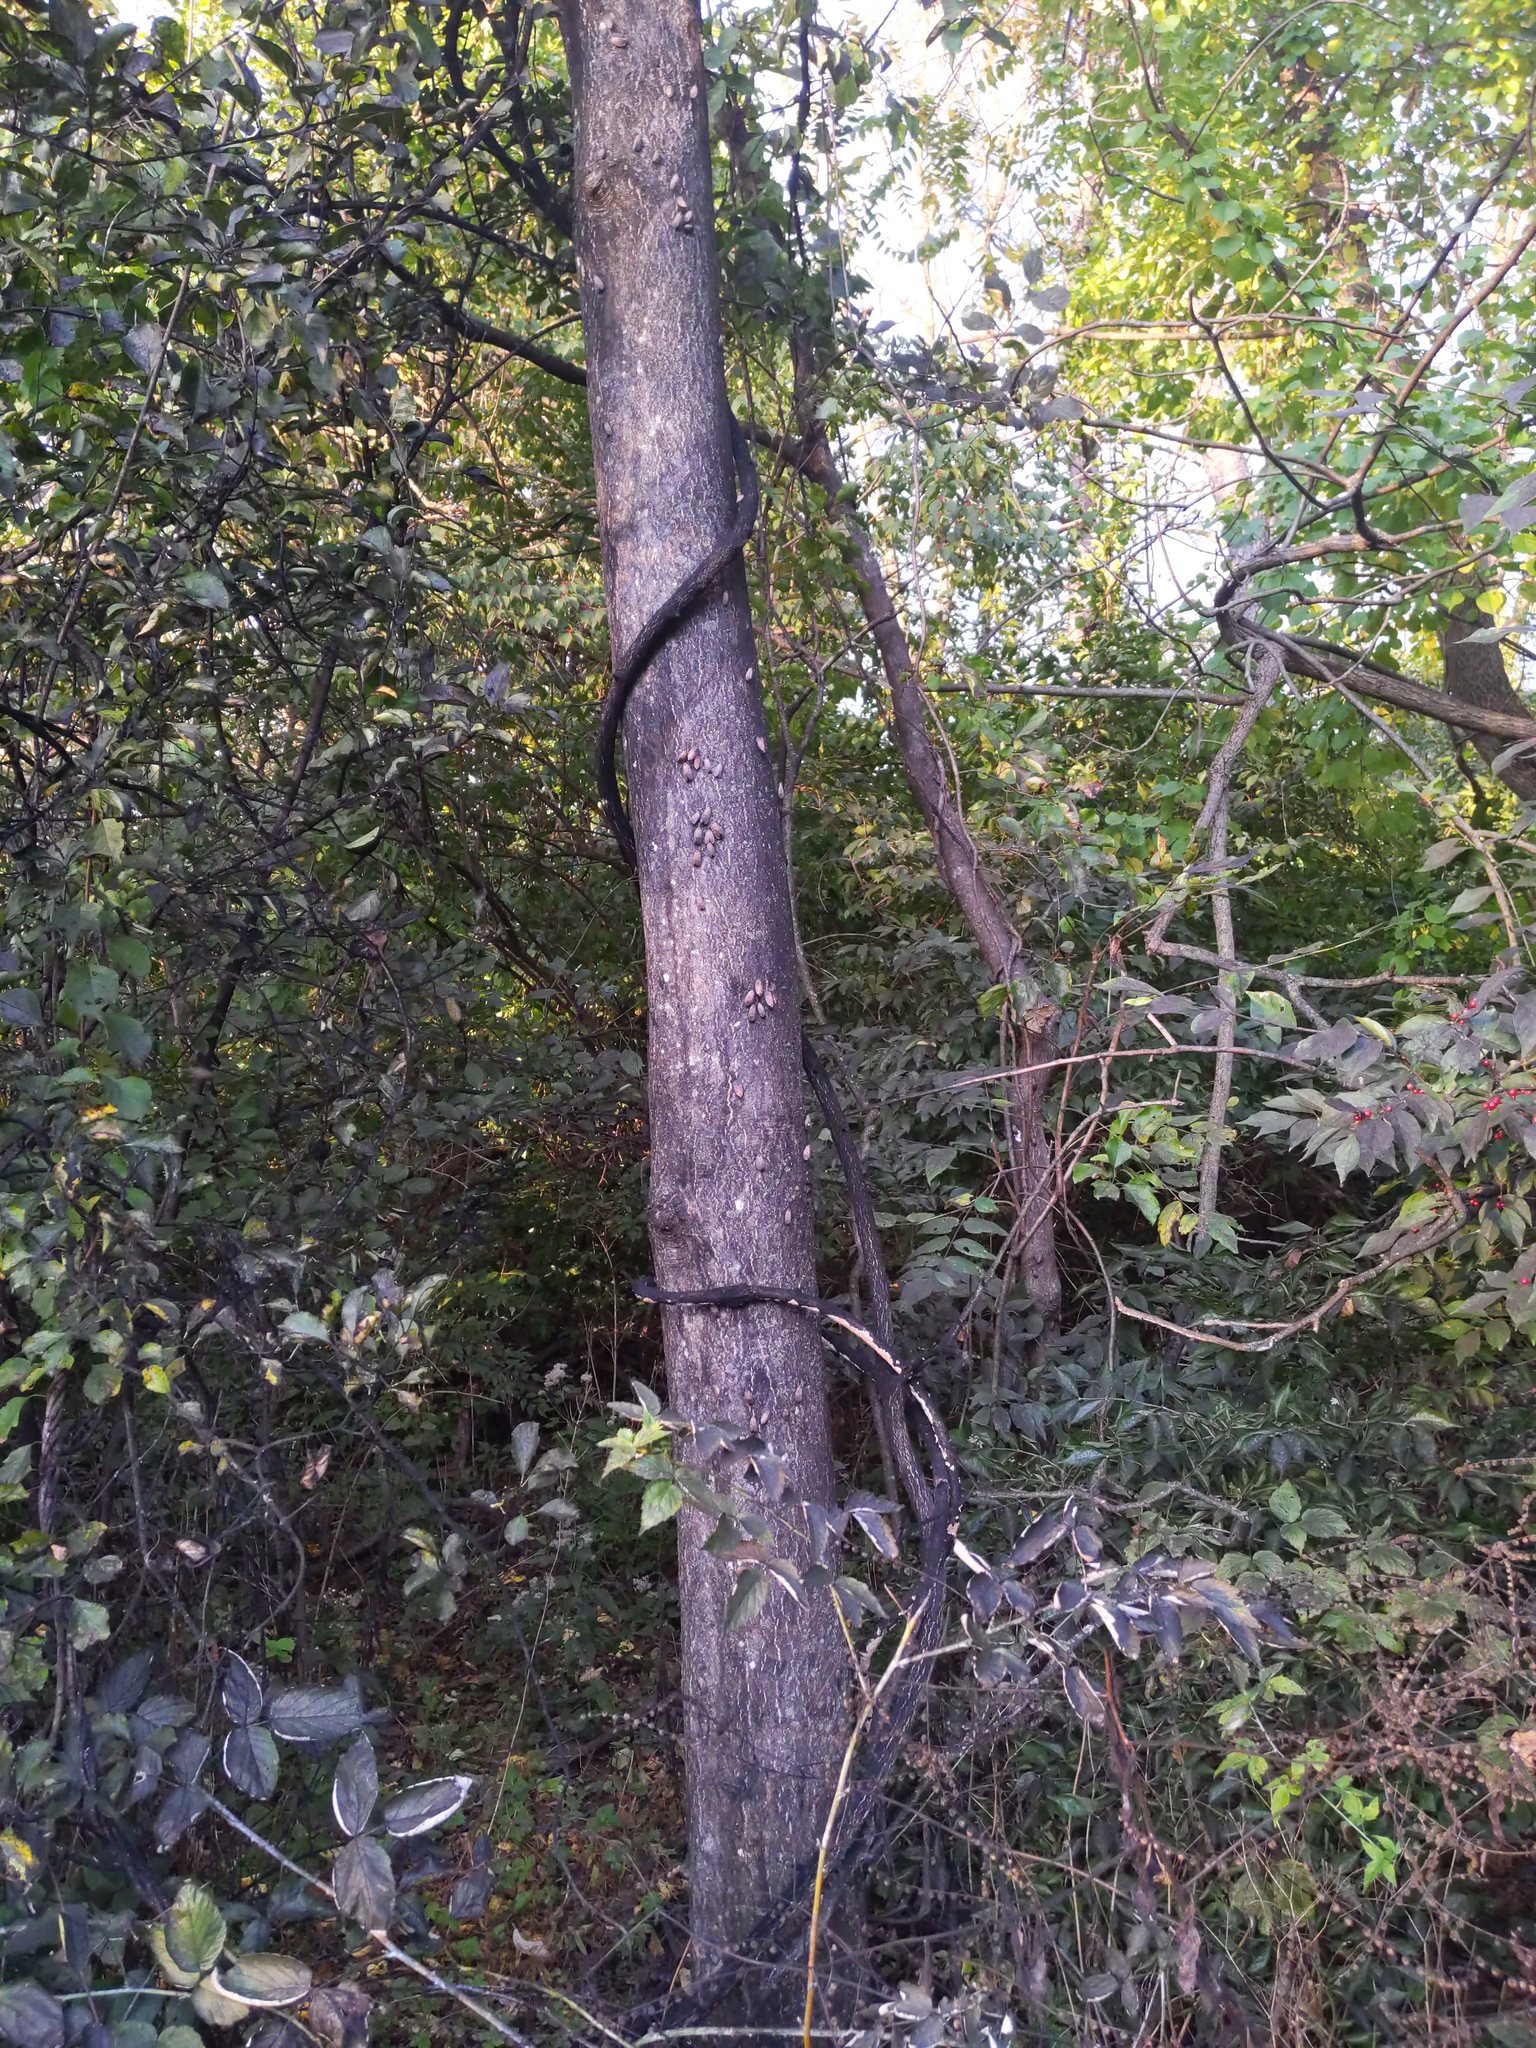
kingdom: Animalia
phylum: Arthropoda
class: Insecta
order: Hemiptera
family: Fulgoridae
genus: Lycorma
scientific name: Lycorma delicatula
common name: Spotted lanternfly
